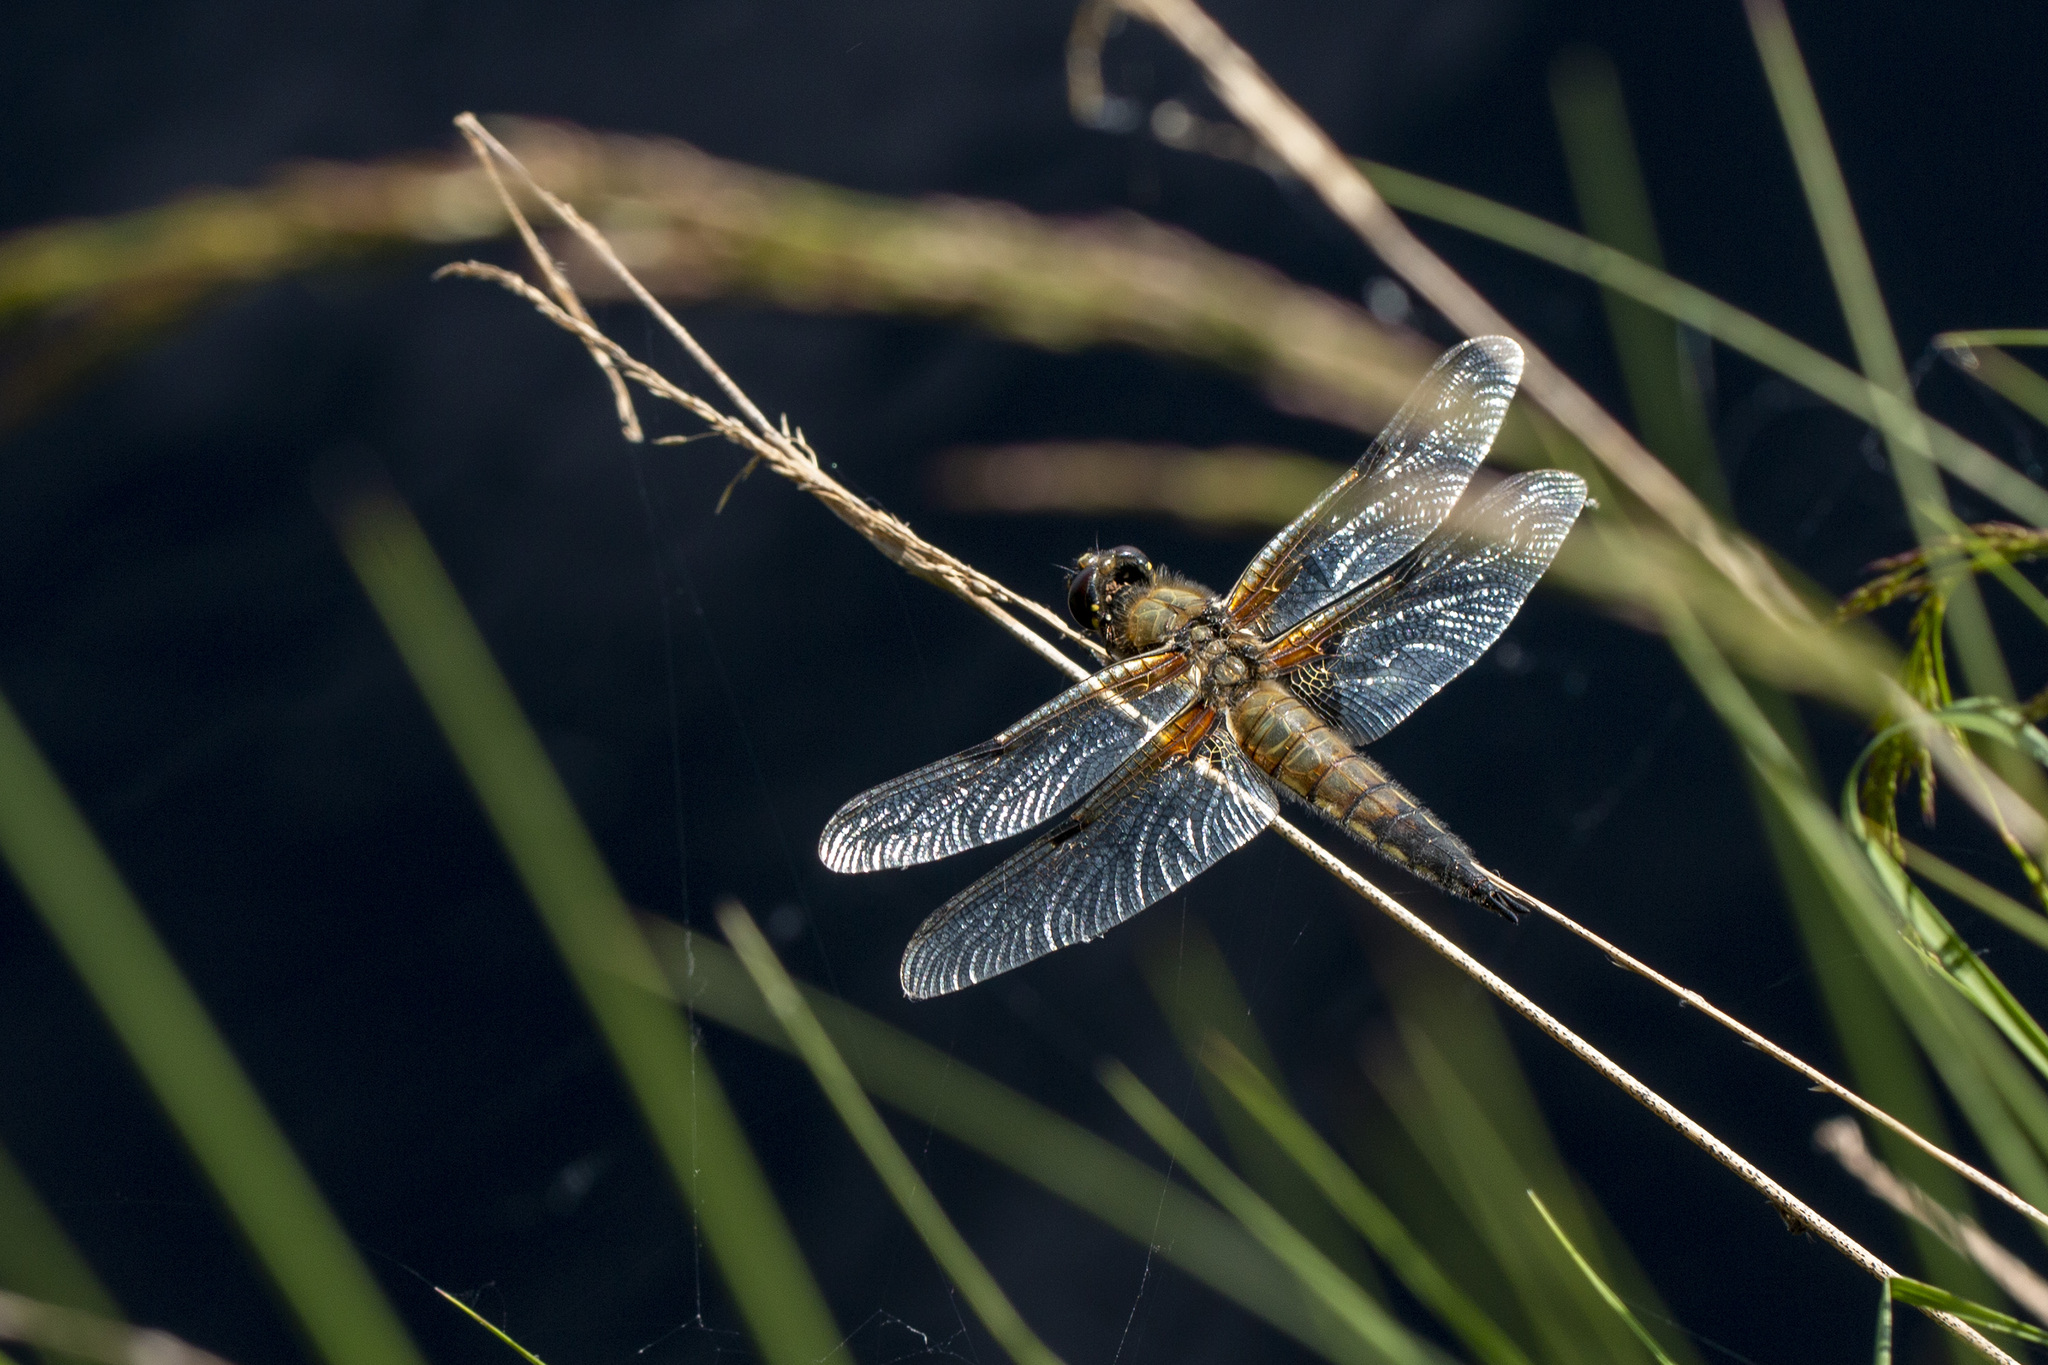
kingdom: Animalia
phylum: Arthropoda
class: Insecta
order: Odonata
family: Libellulidae
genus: Libellula
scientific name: Libellula quadrimaculata
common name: Four-spotted chaser
